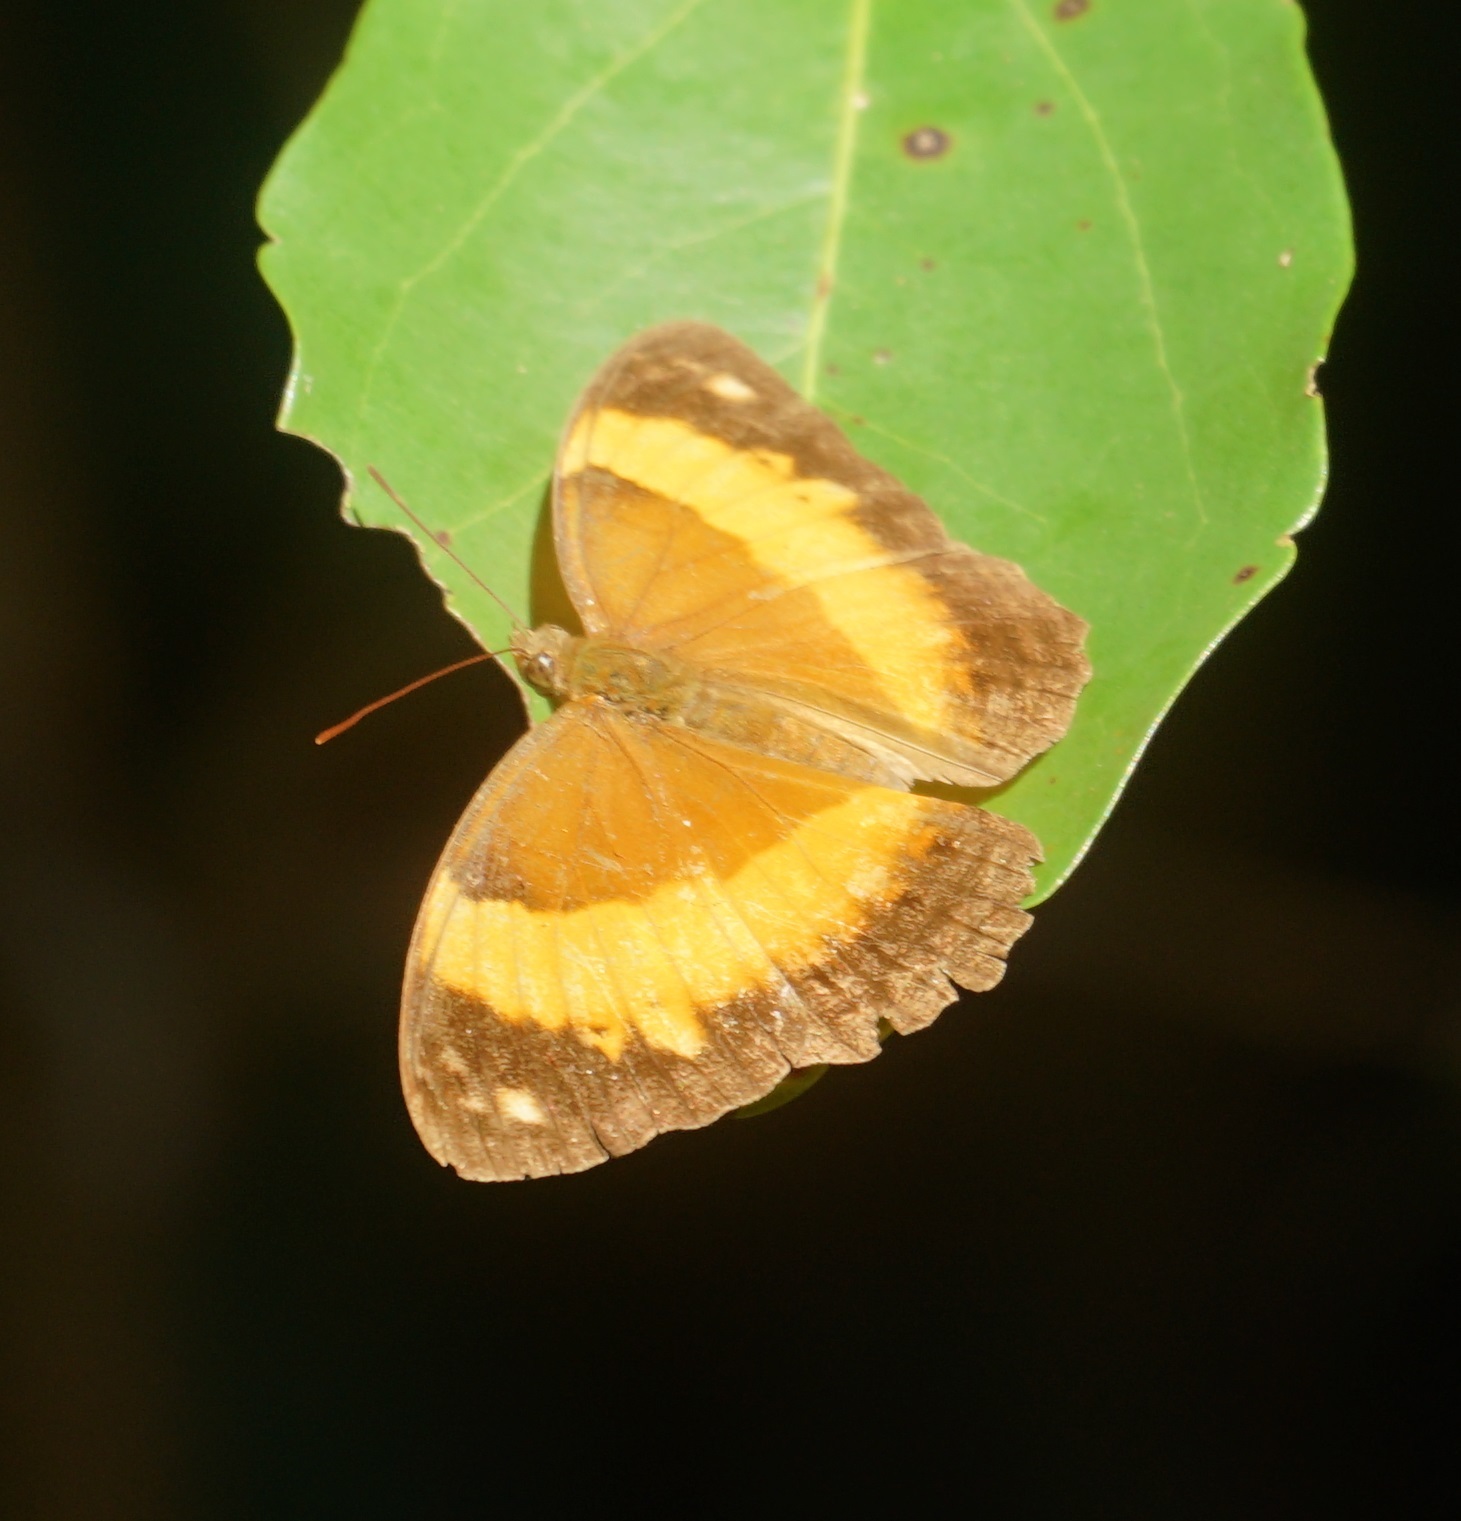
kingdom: Animalia
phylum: Arthropoda
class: Insecta
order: Lepidoptera
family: Nymphalidae
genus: Cupha
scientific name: Cupha prosope
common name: Bordered rustic
